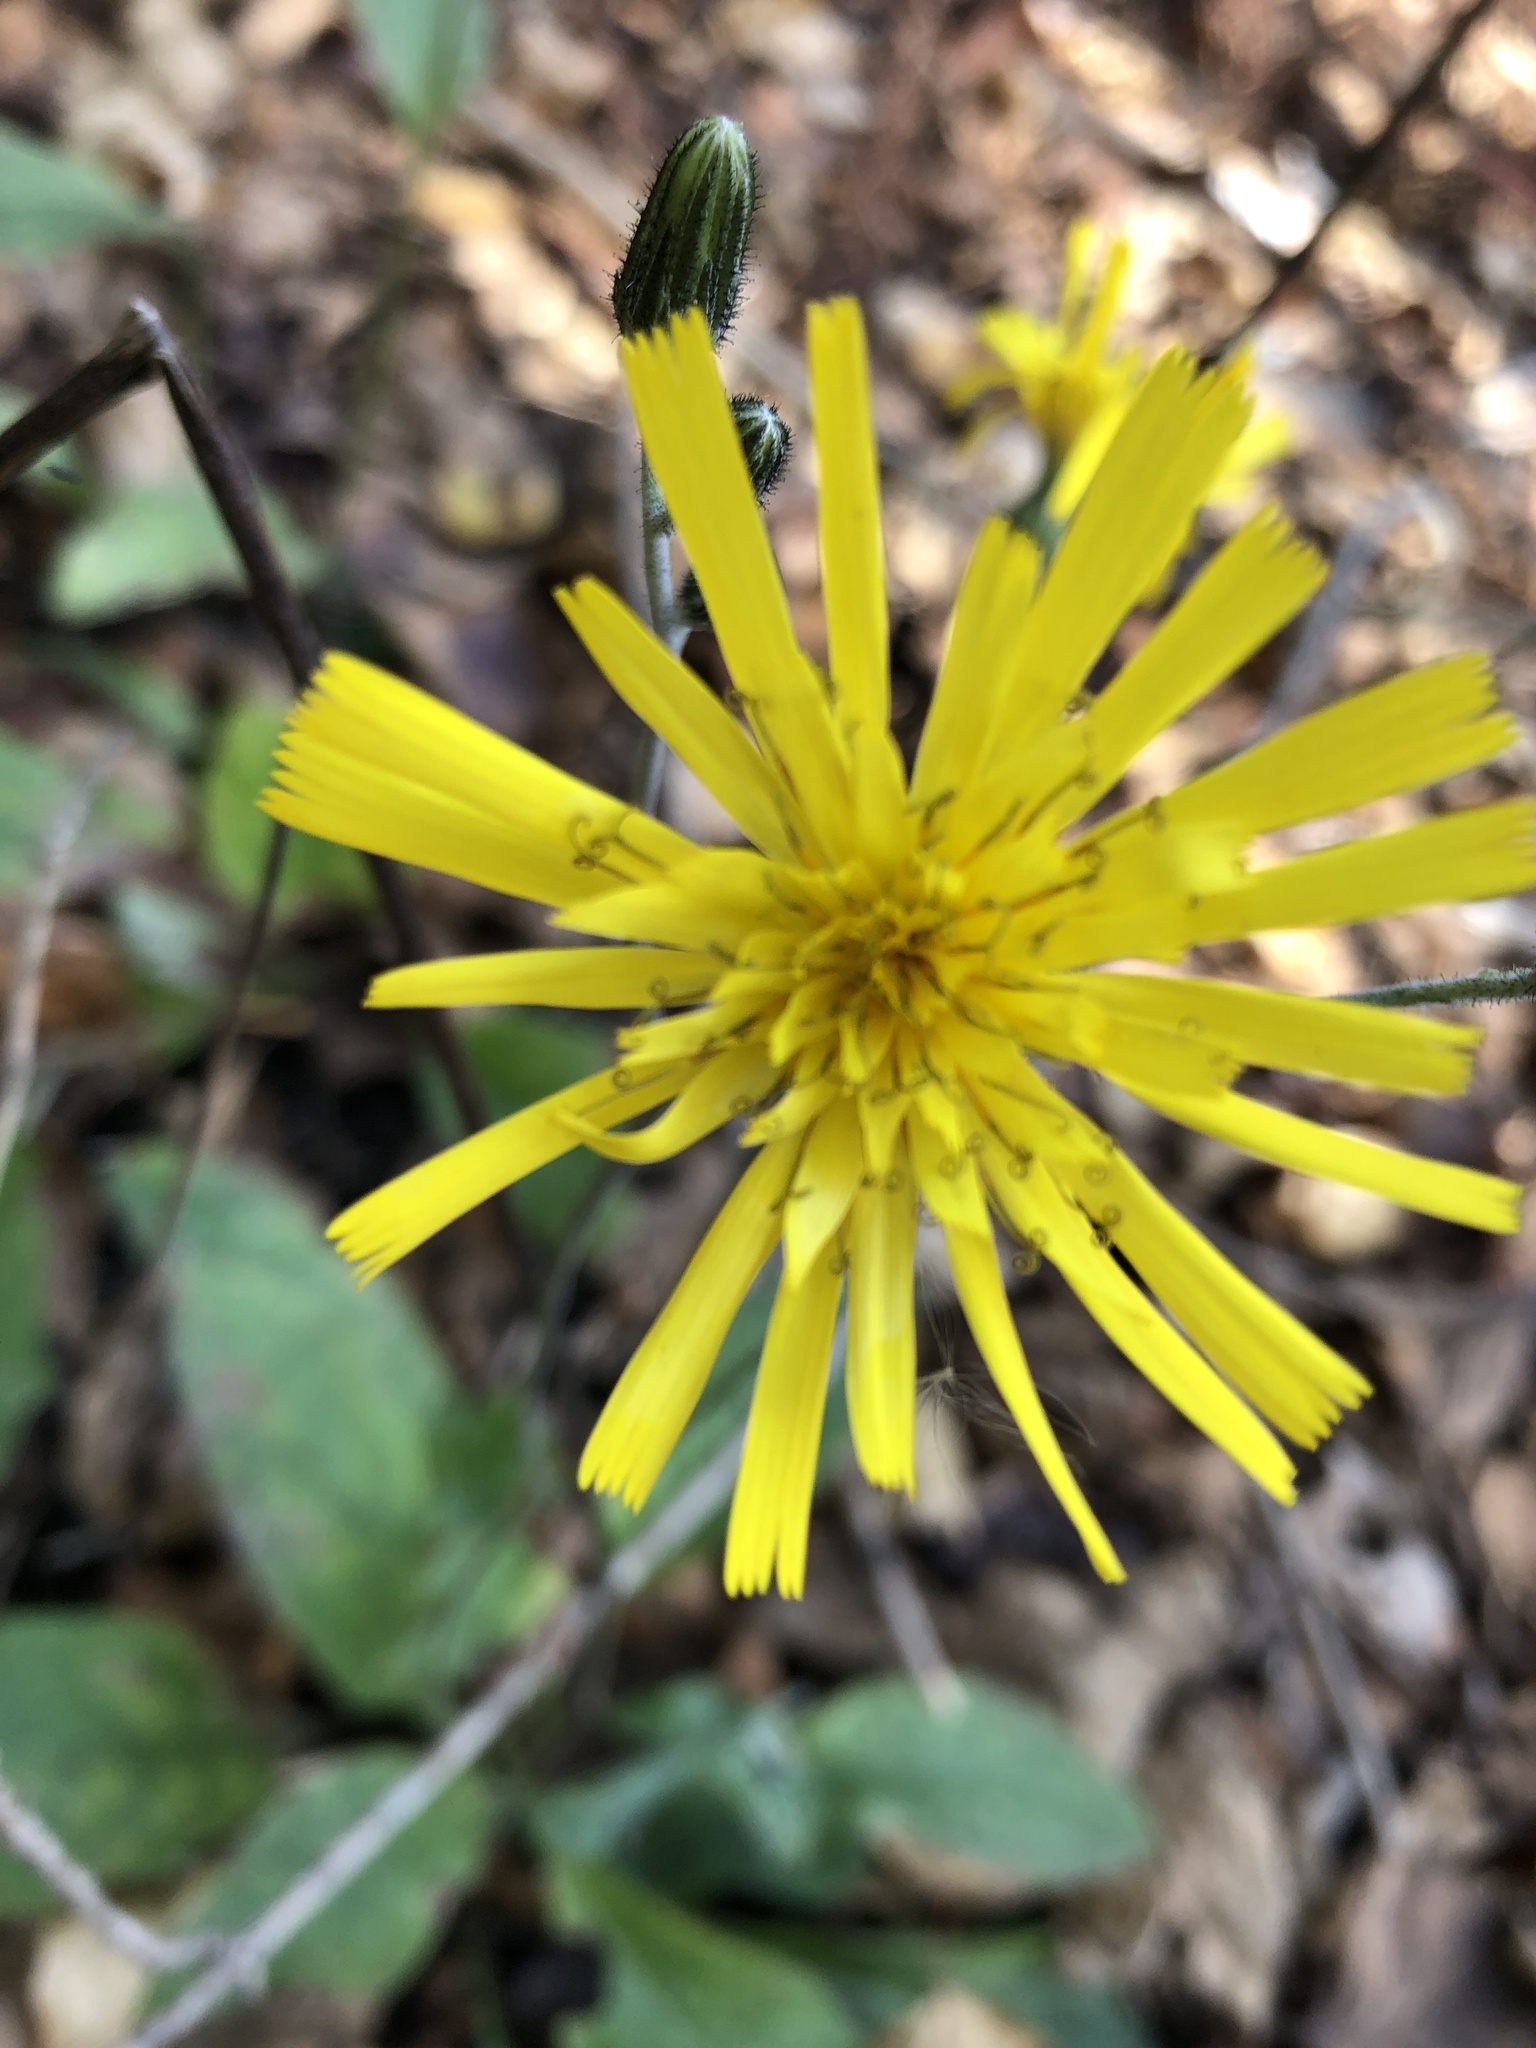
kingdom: Plantae
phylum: Tracheophyta
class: Magnoliopsida
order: Asterales
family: Asteraceae
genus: Hieracium
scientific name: Hieracium lachenalii
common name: Common hawkweed
